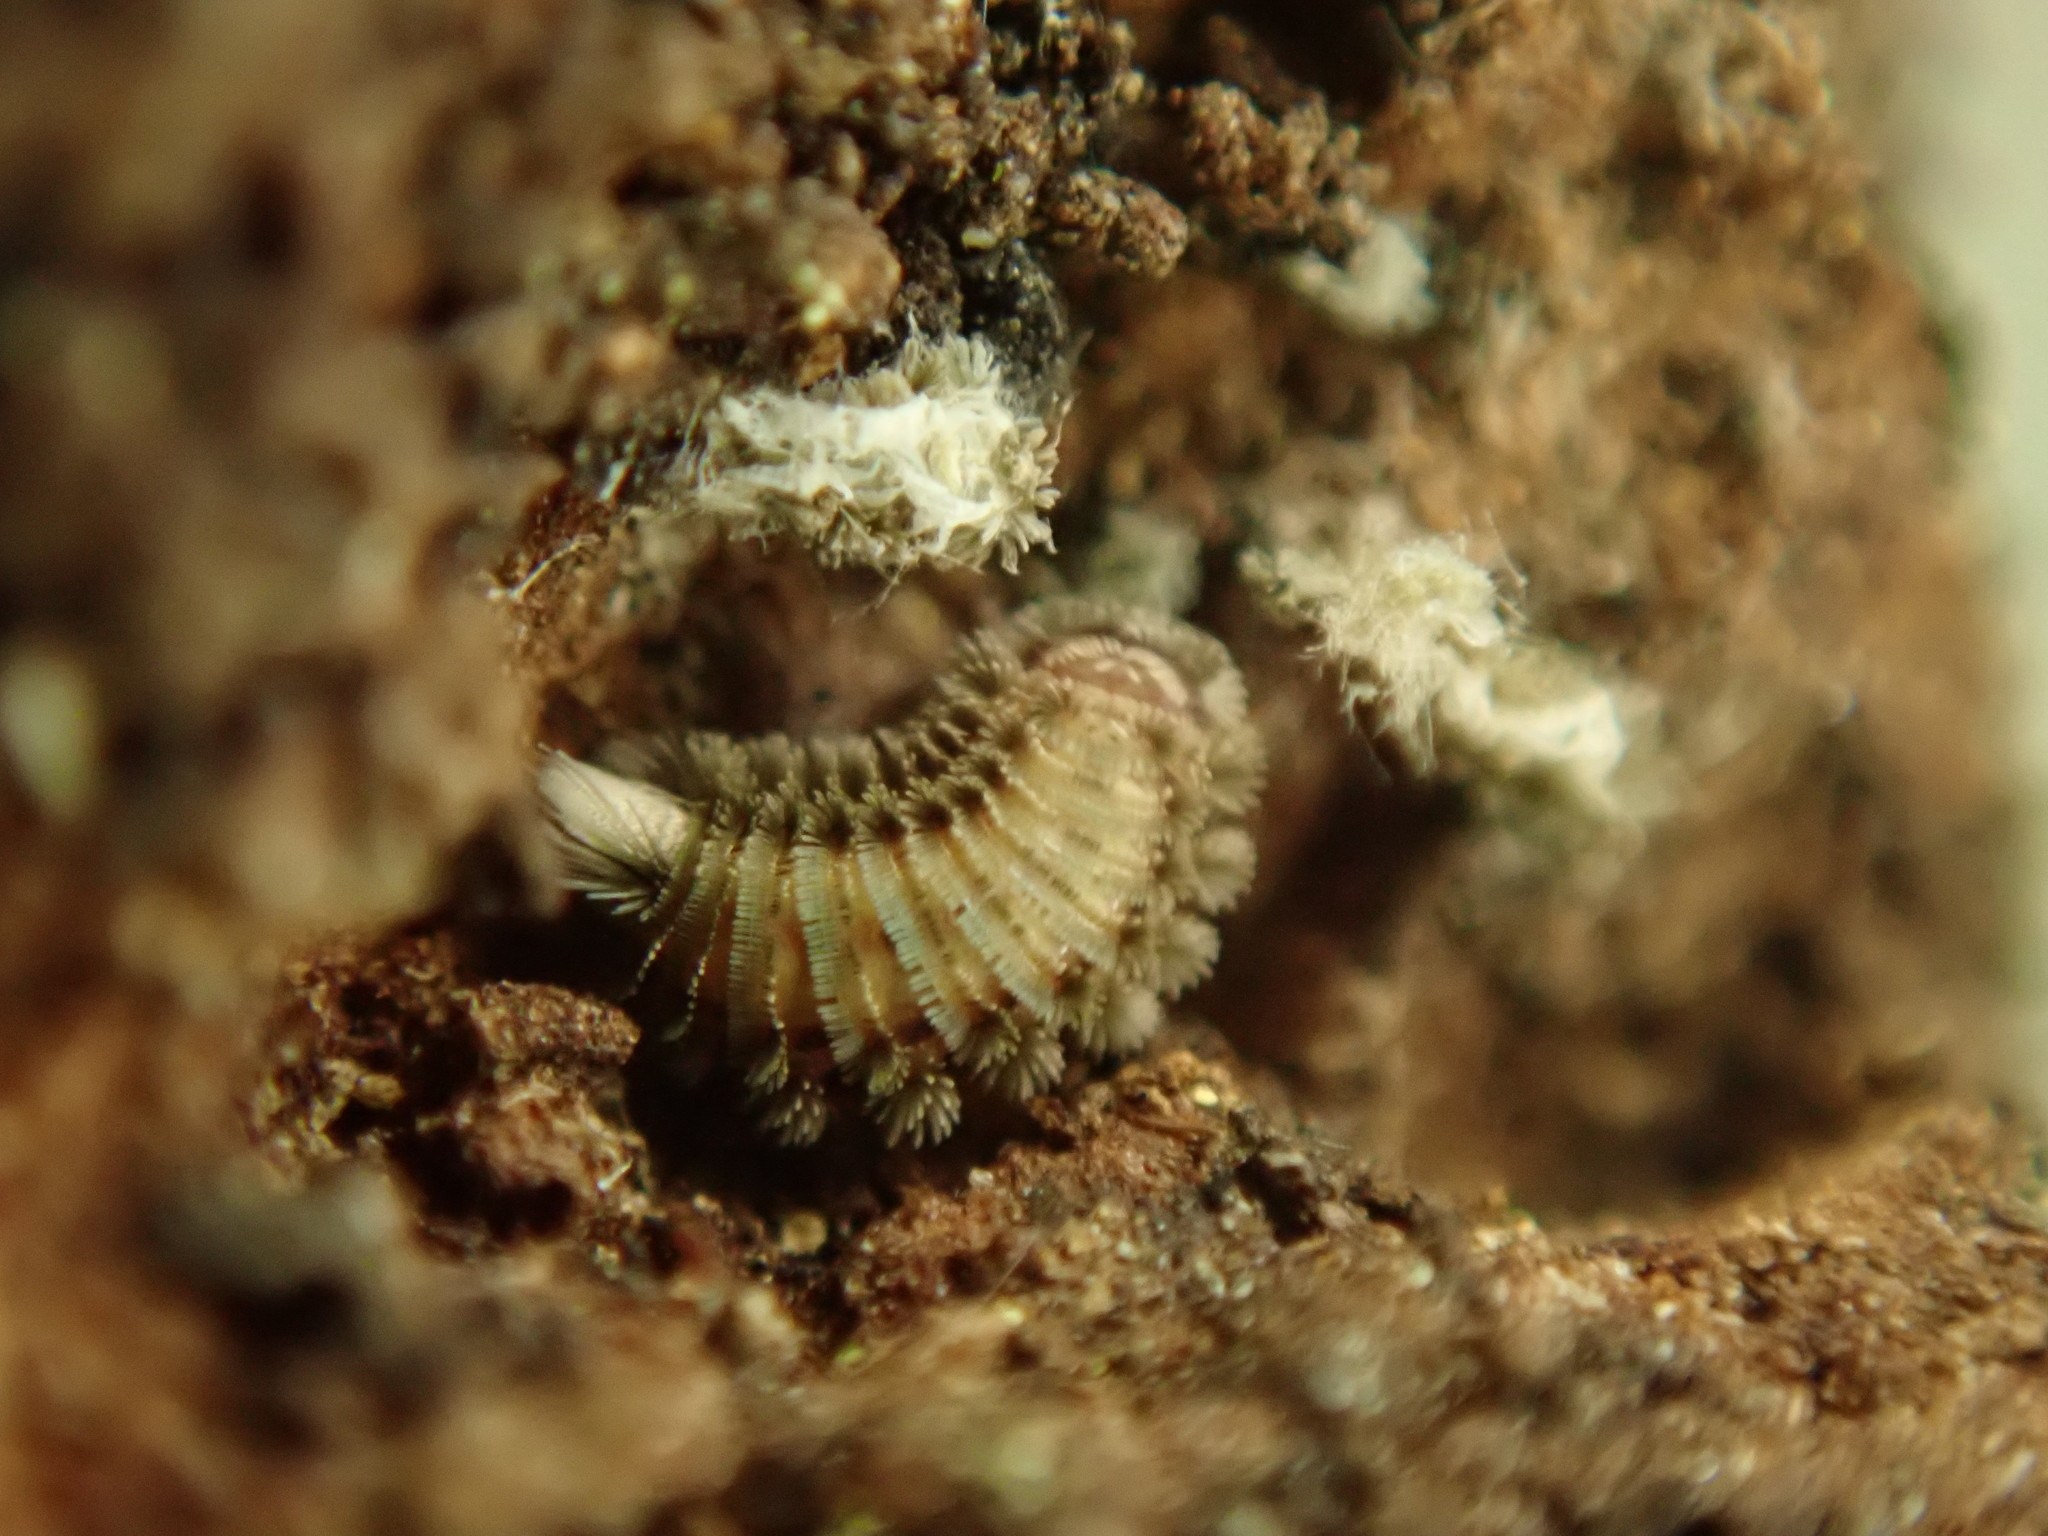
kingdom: Animalia
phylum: Arthropoda
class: Diplopoda
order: Polyxenida
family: Polyxenidae
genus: Polyxenus
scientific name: Polyxenus lagurus
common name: Bristly millipede
